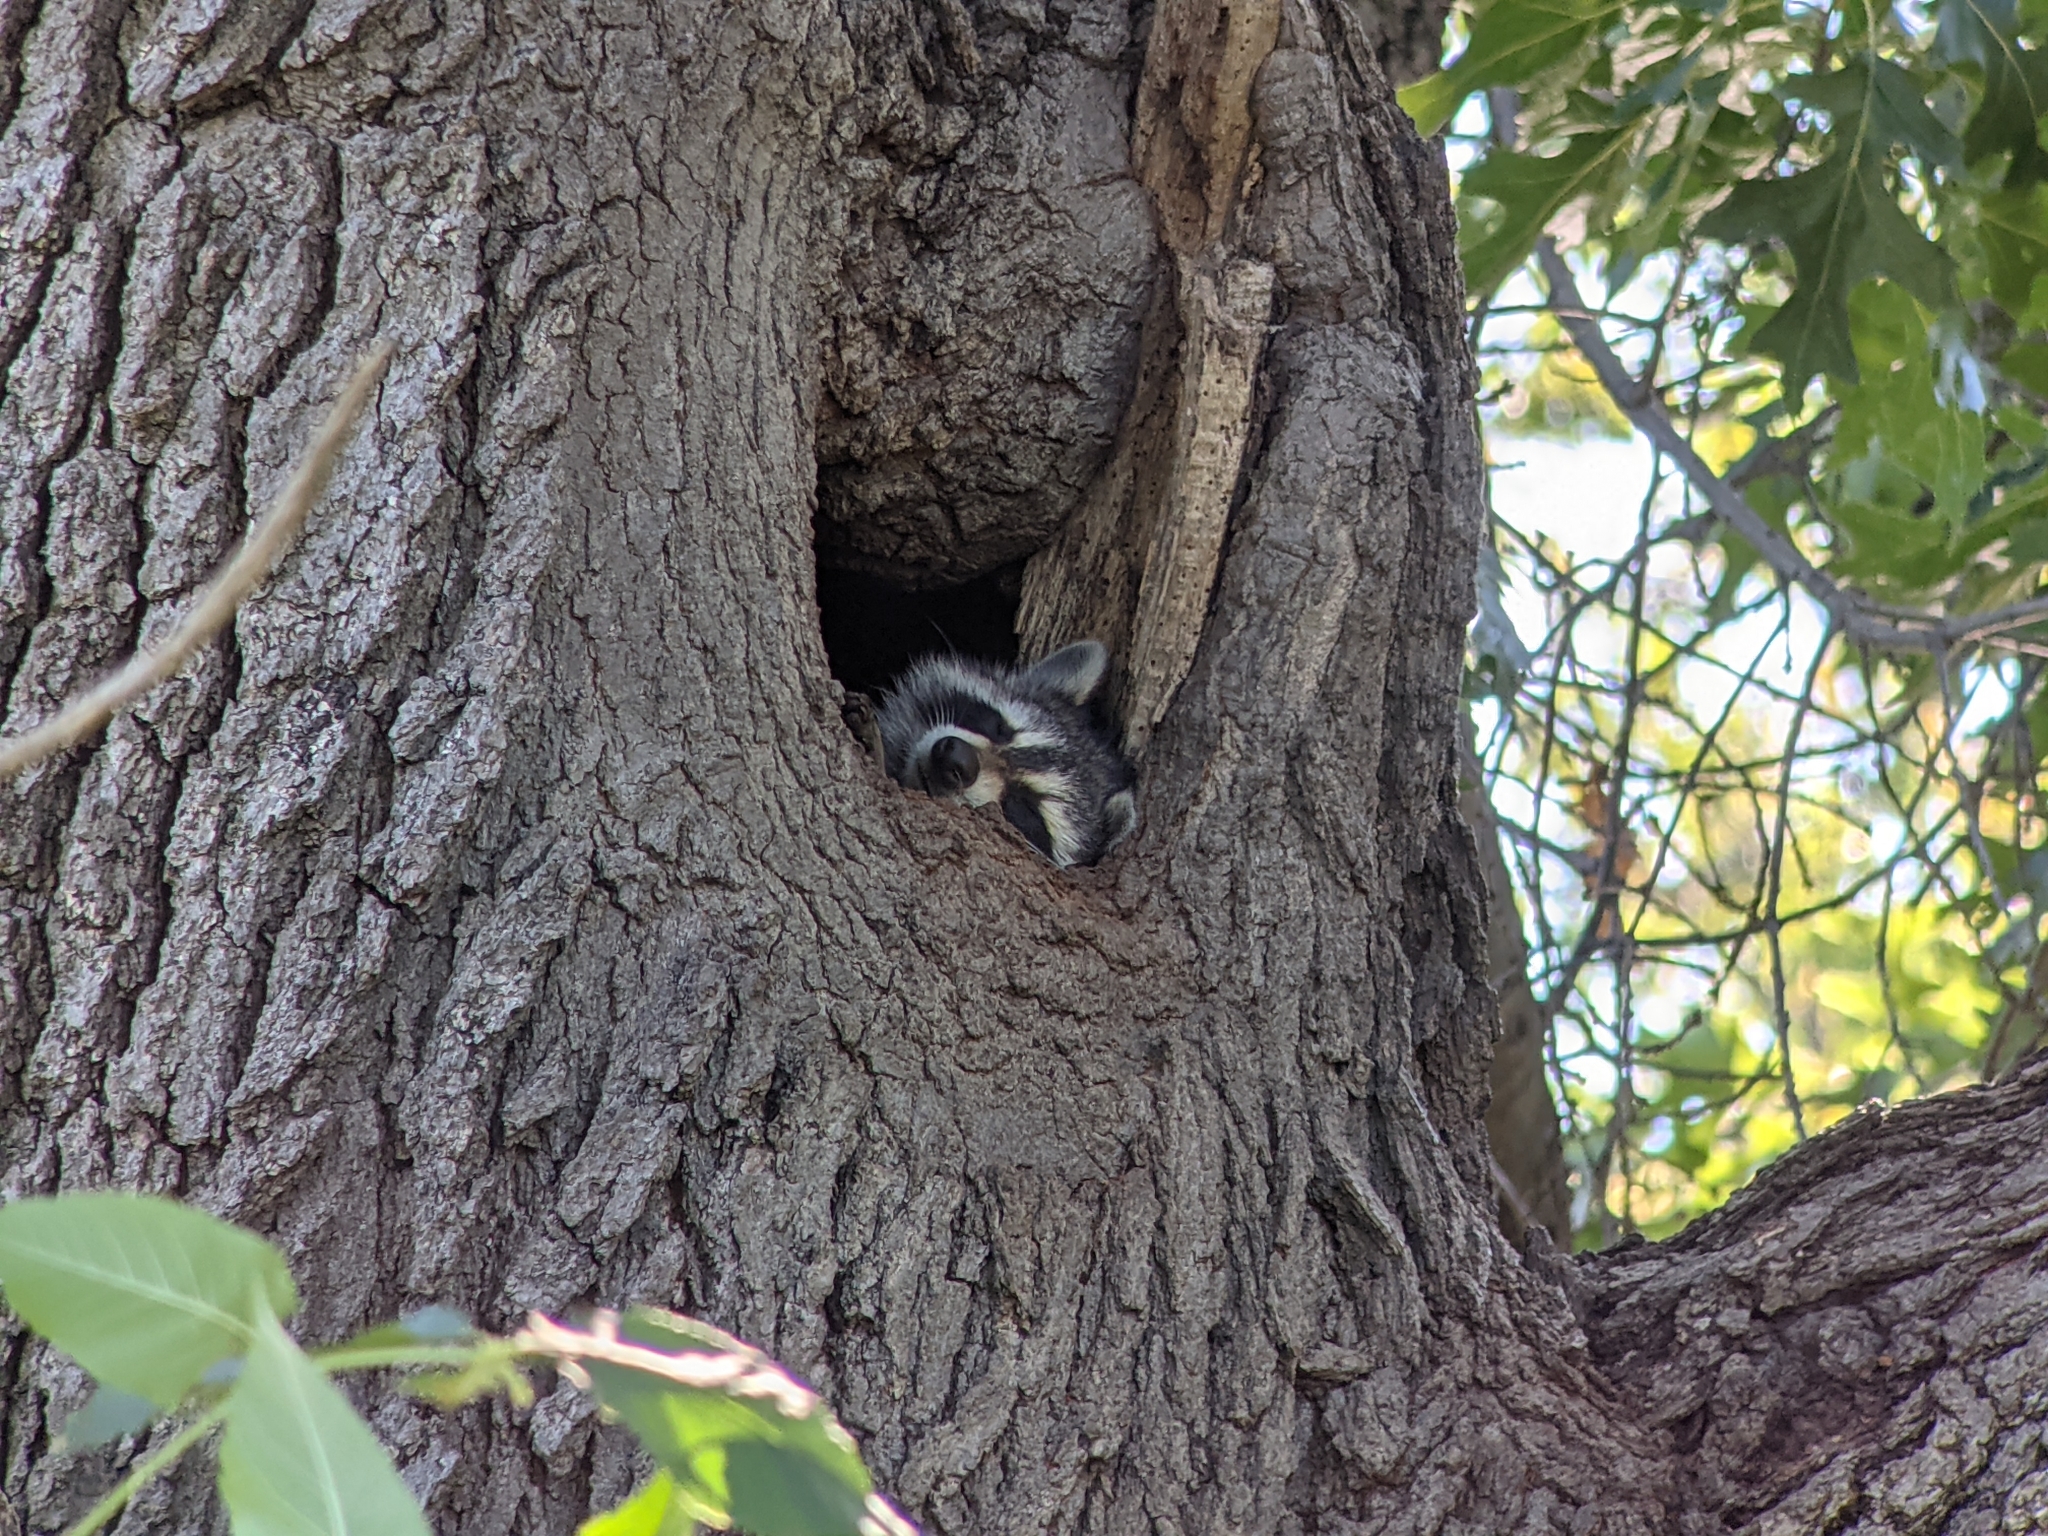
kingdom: Animalia
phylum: Chordata
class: Mammalia
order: Carnivora
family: Procyonidae
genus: Procyon
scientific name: Procyon lotor
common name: Raccoon
